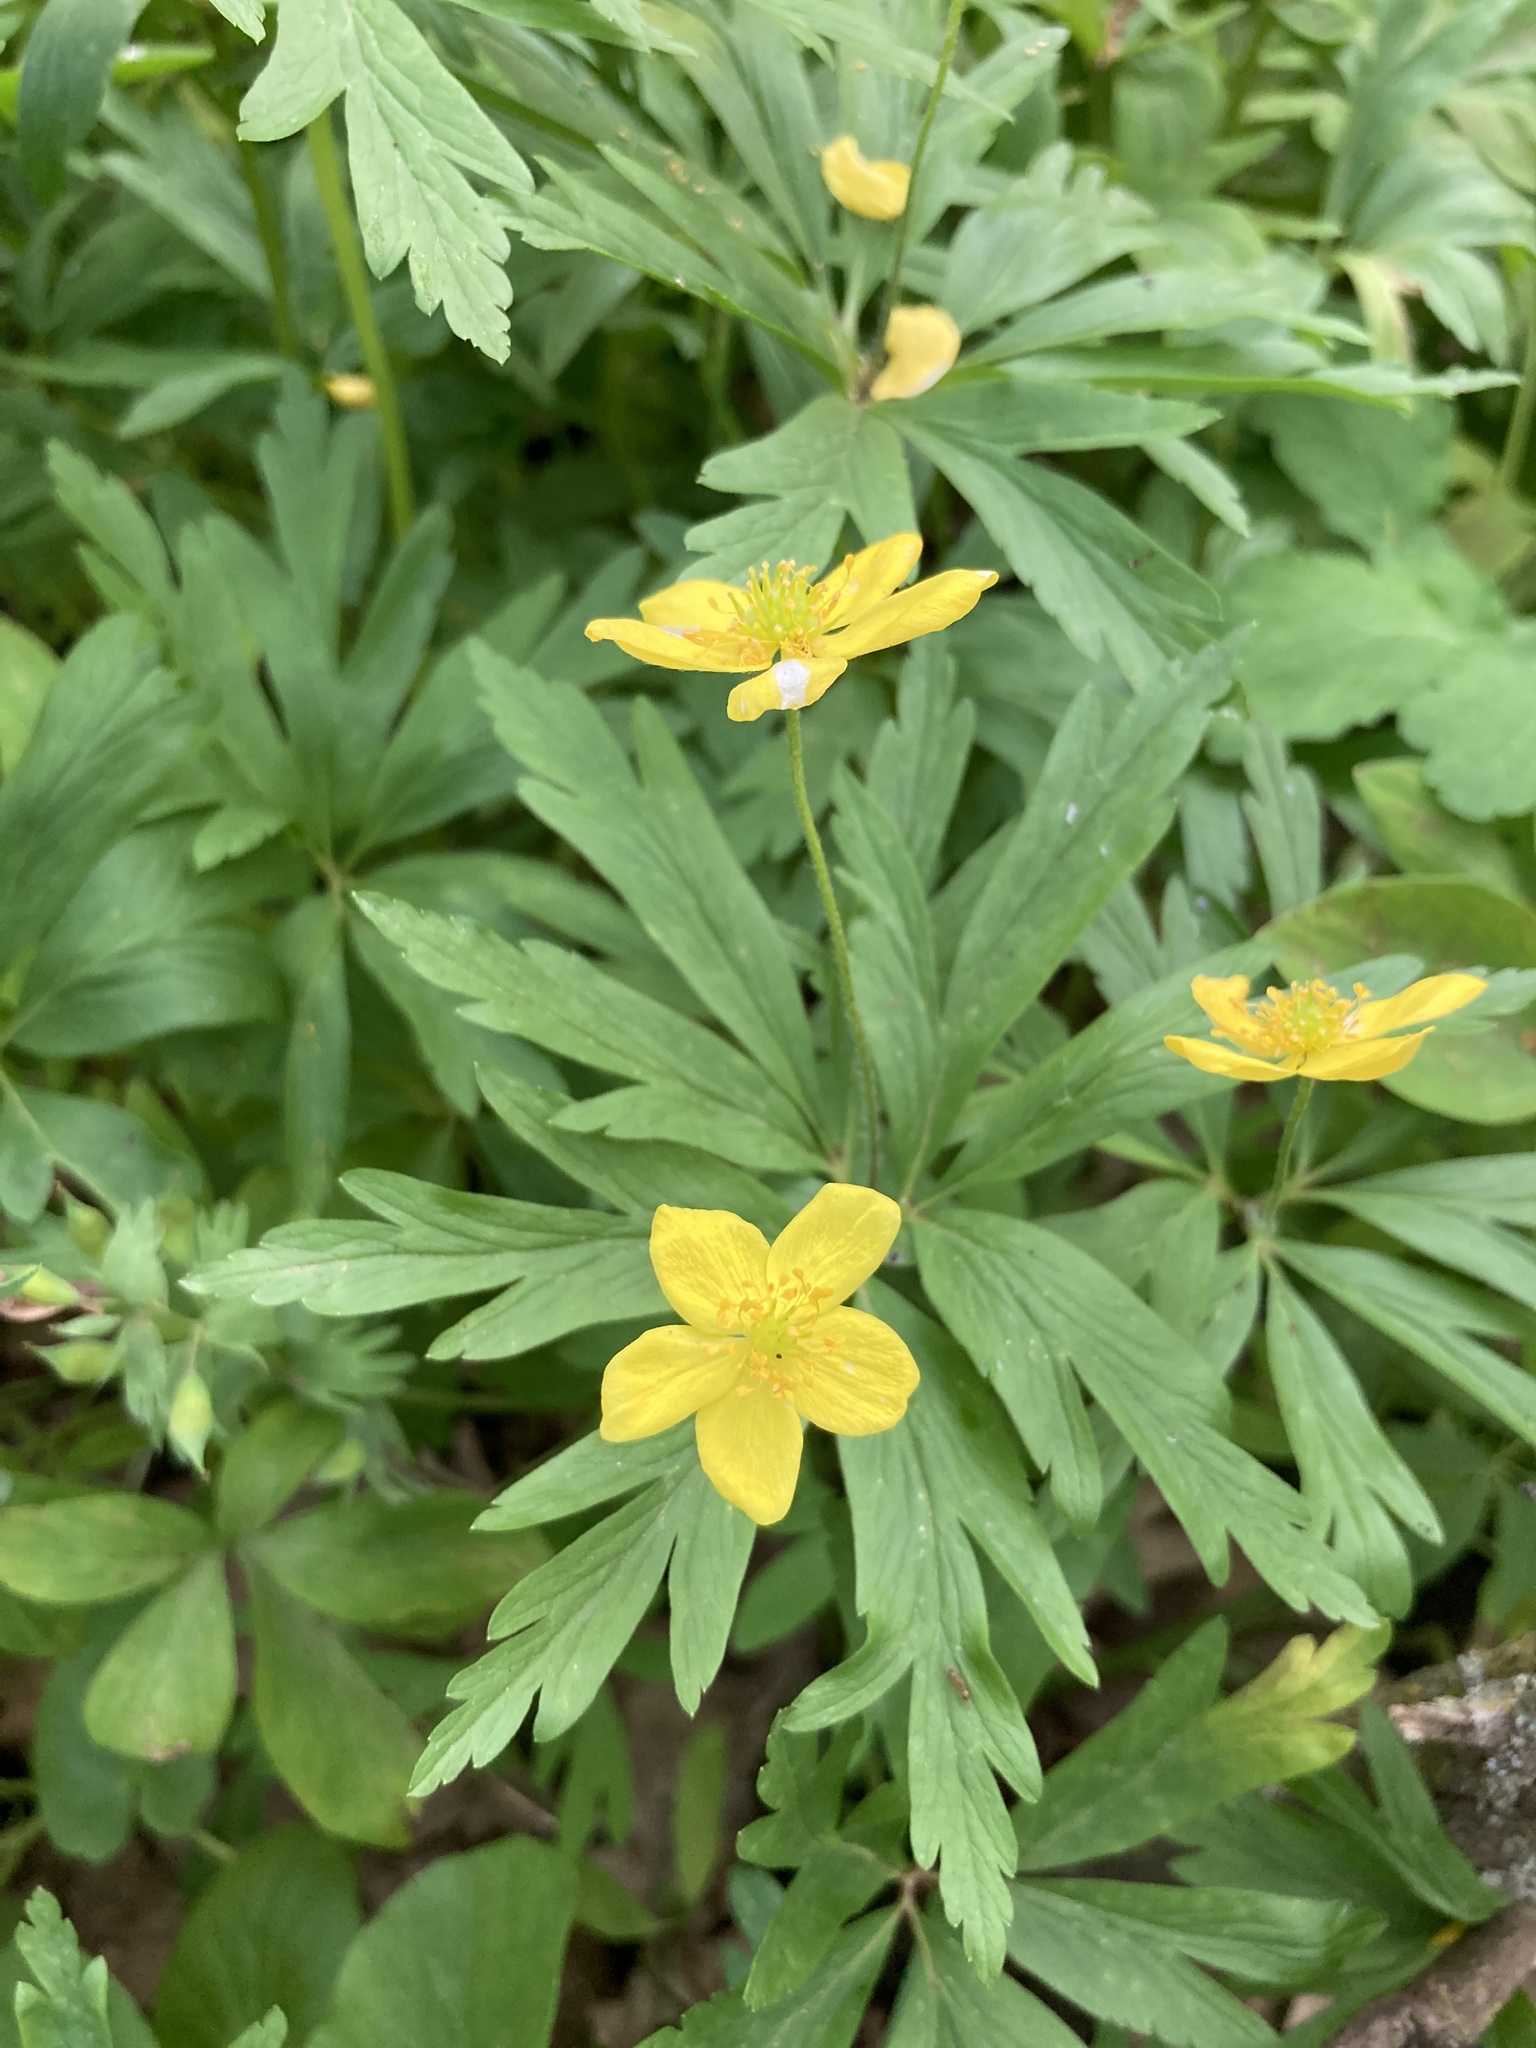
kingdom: Plantae
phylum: Tracheophyta
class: Magnoliopsida
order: Ranunculales
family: Ranunculaceae
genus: Anemone
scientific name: Anemone ranunculoides
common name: Yellow anemone
